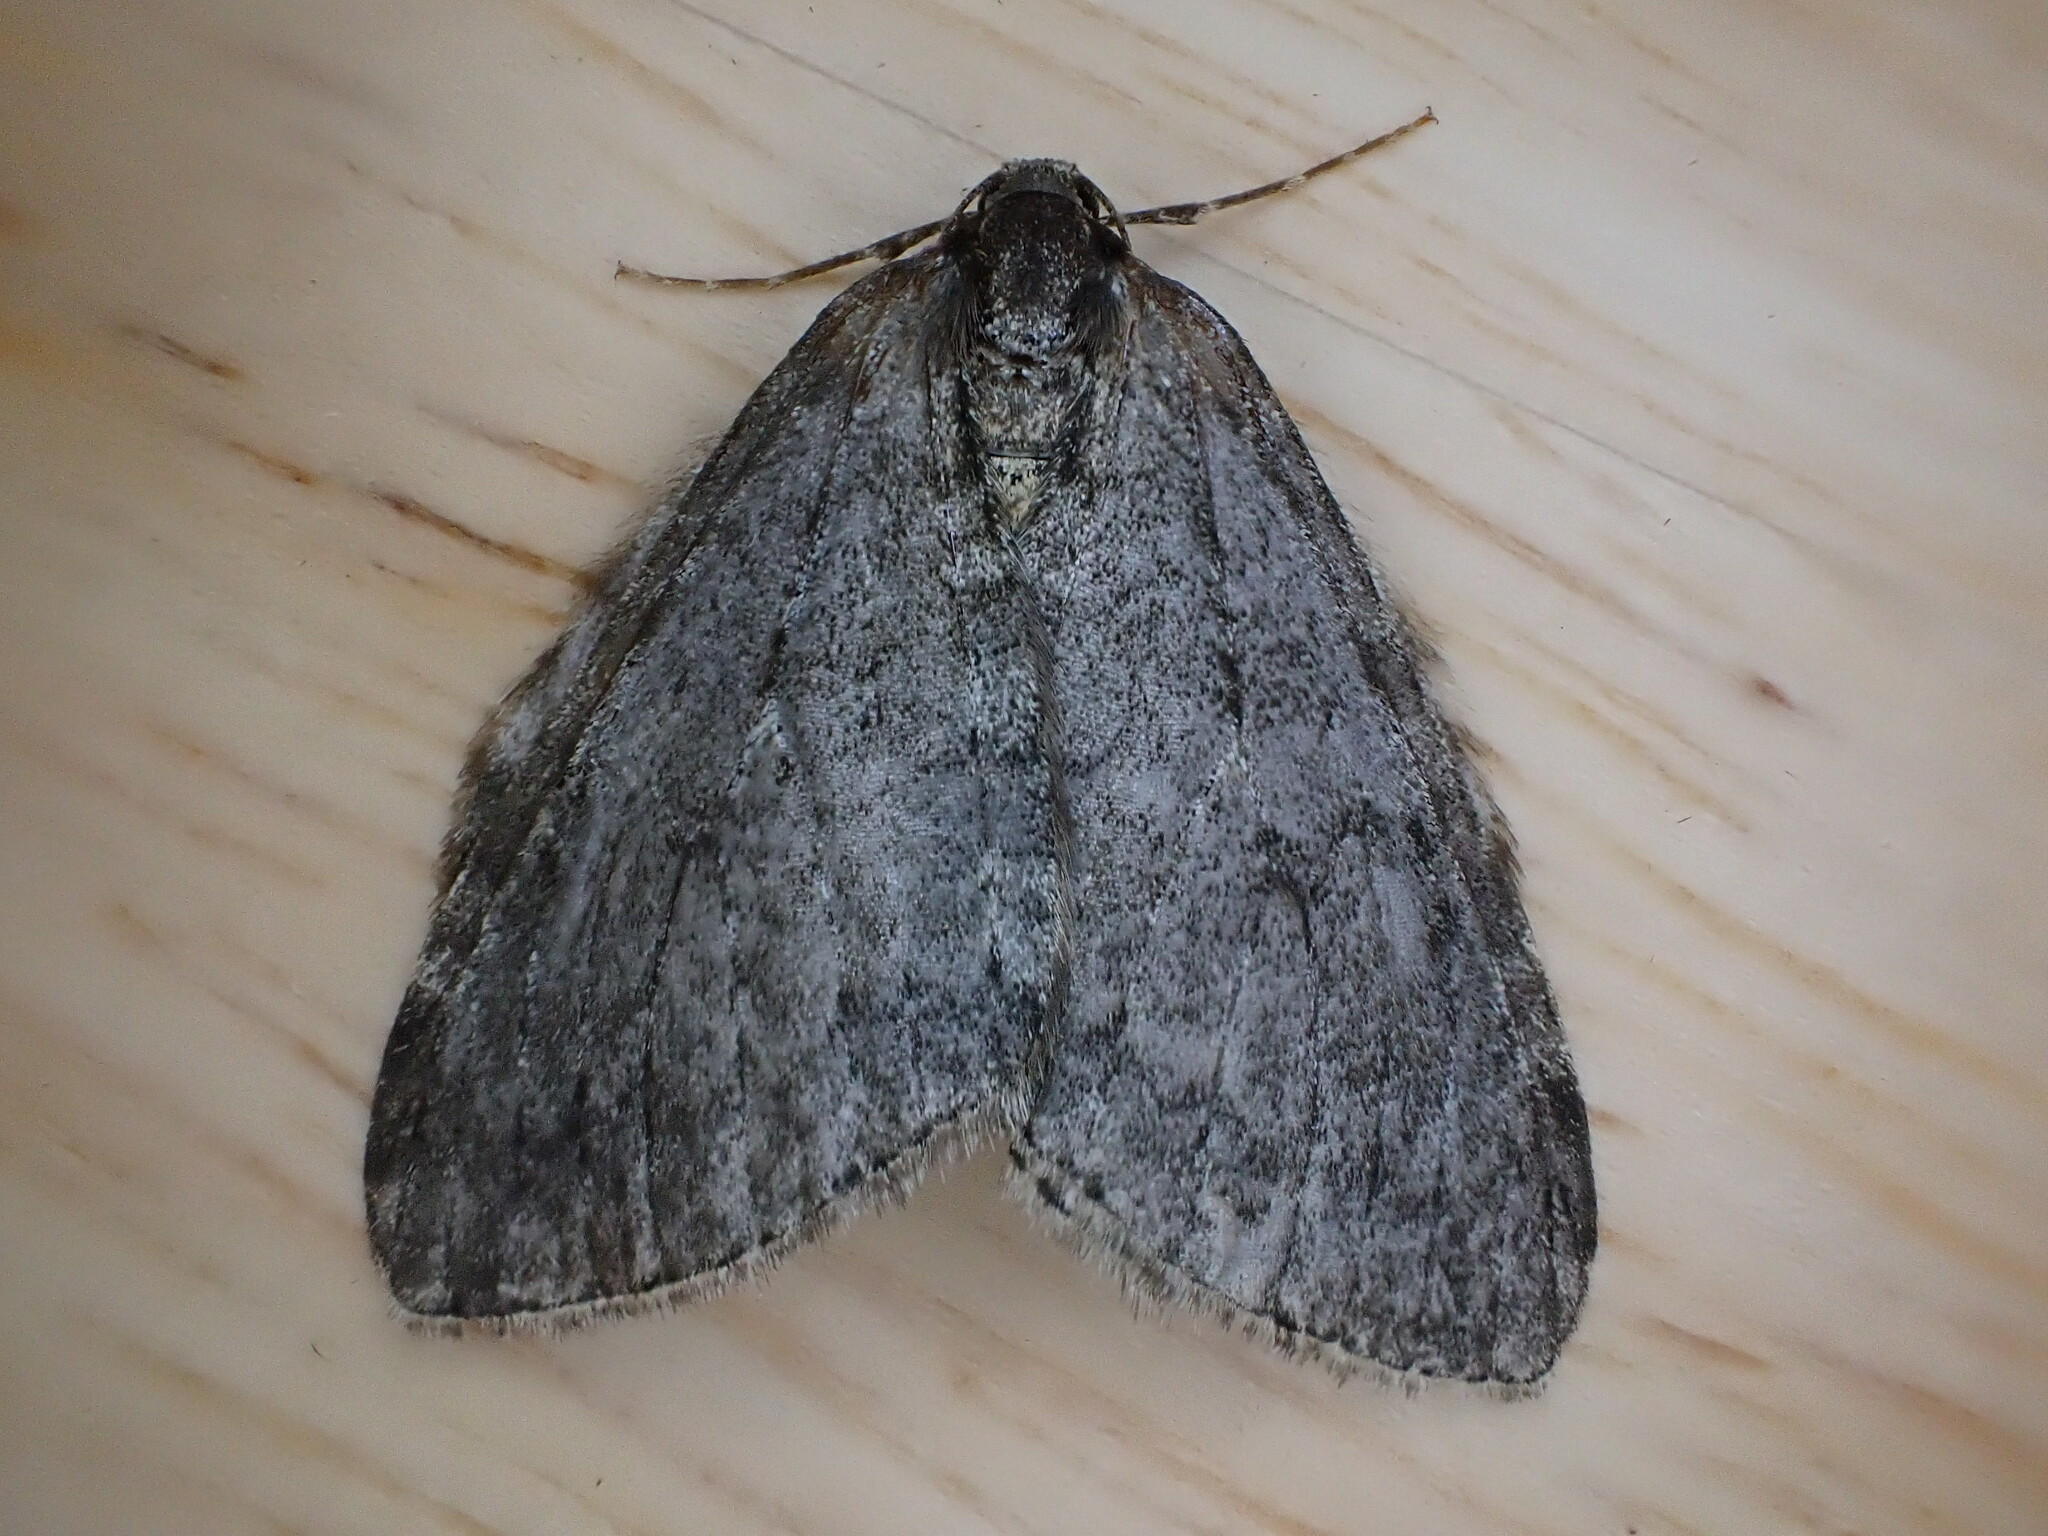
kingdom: Animalia
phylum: Arthropoda
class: Insecta
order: Lepidoptera
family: Geometridae
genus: Epirrita
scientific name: Epirrita dilutata
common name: November moth
